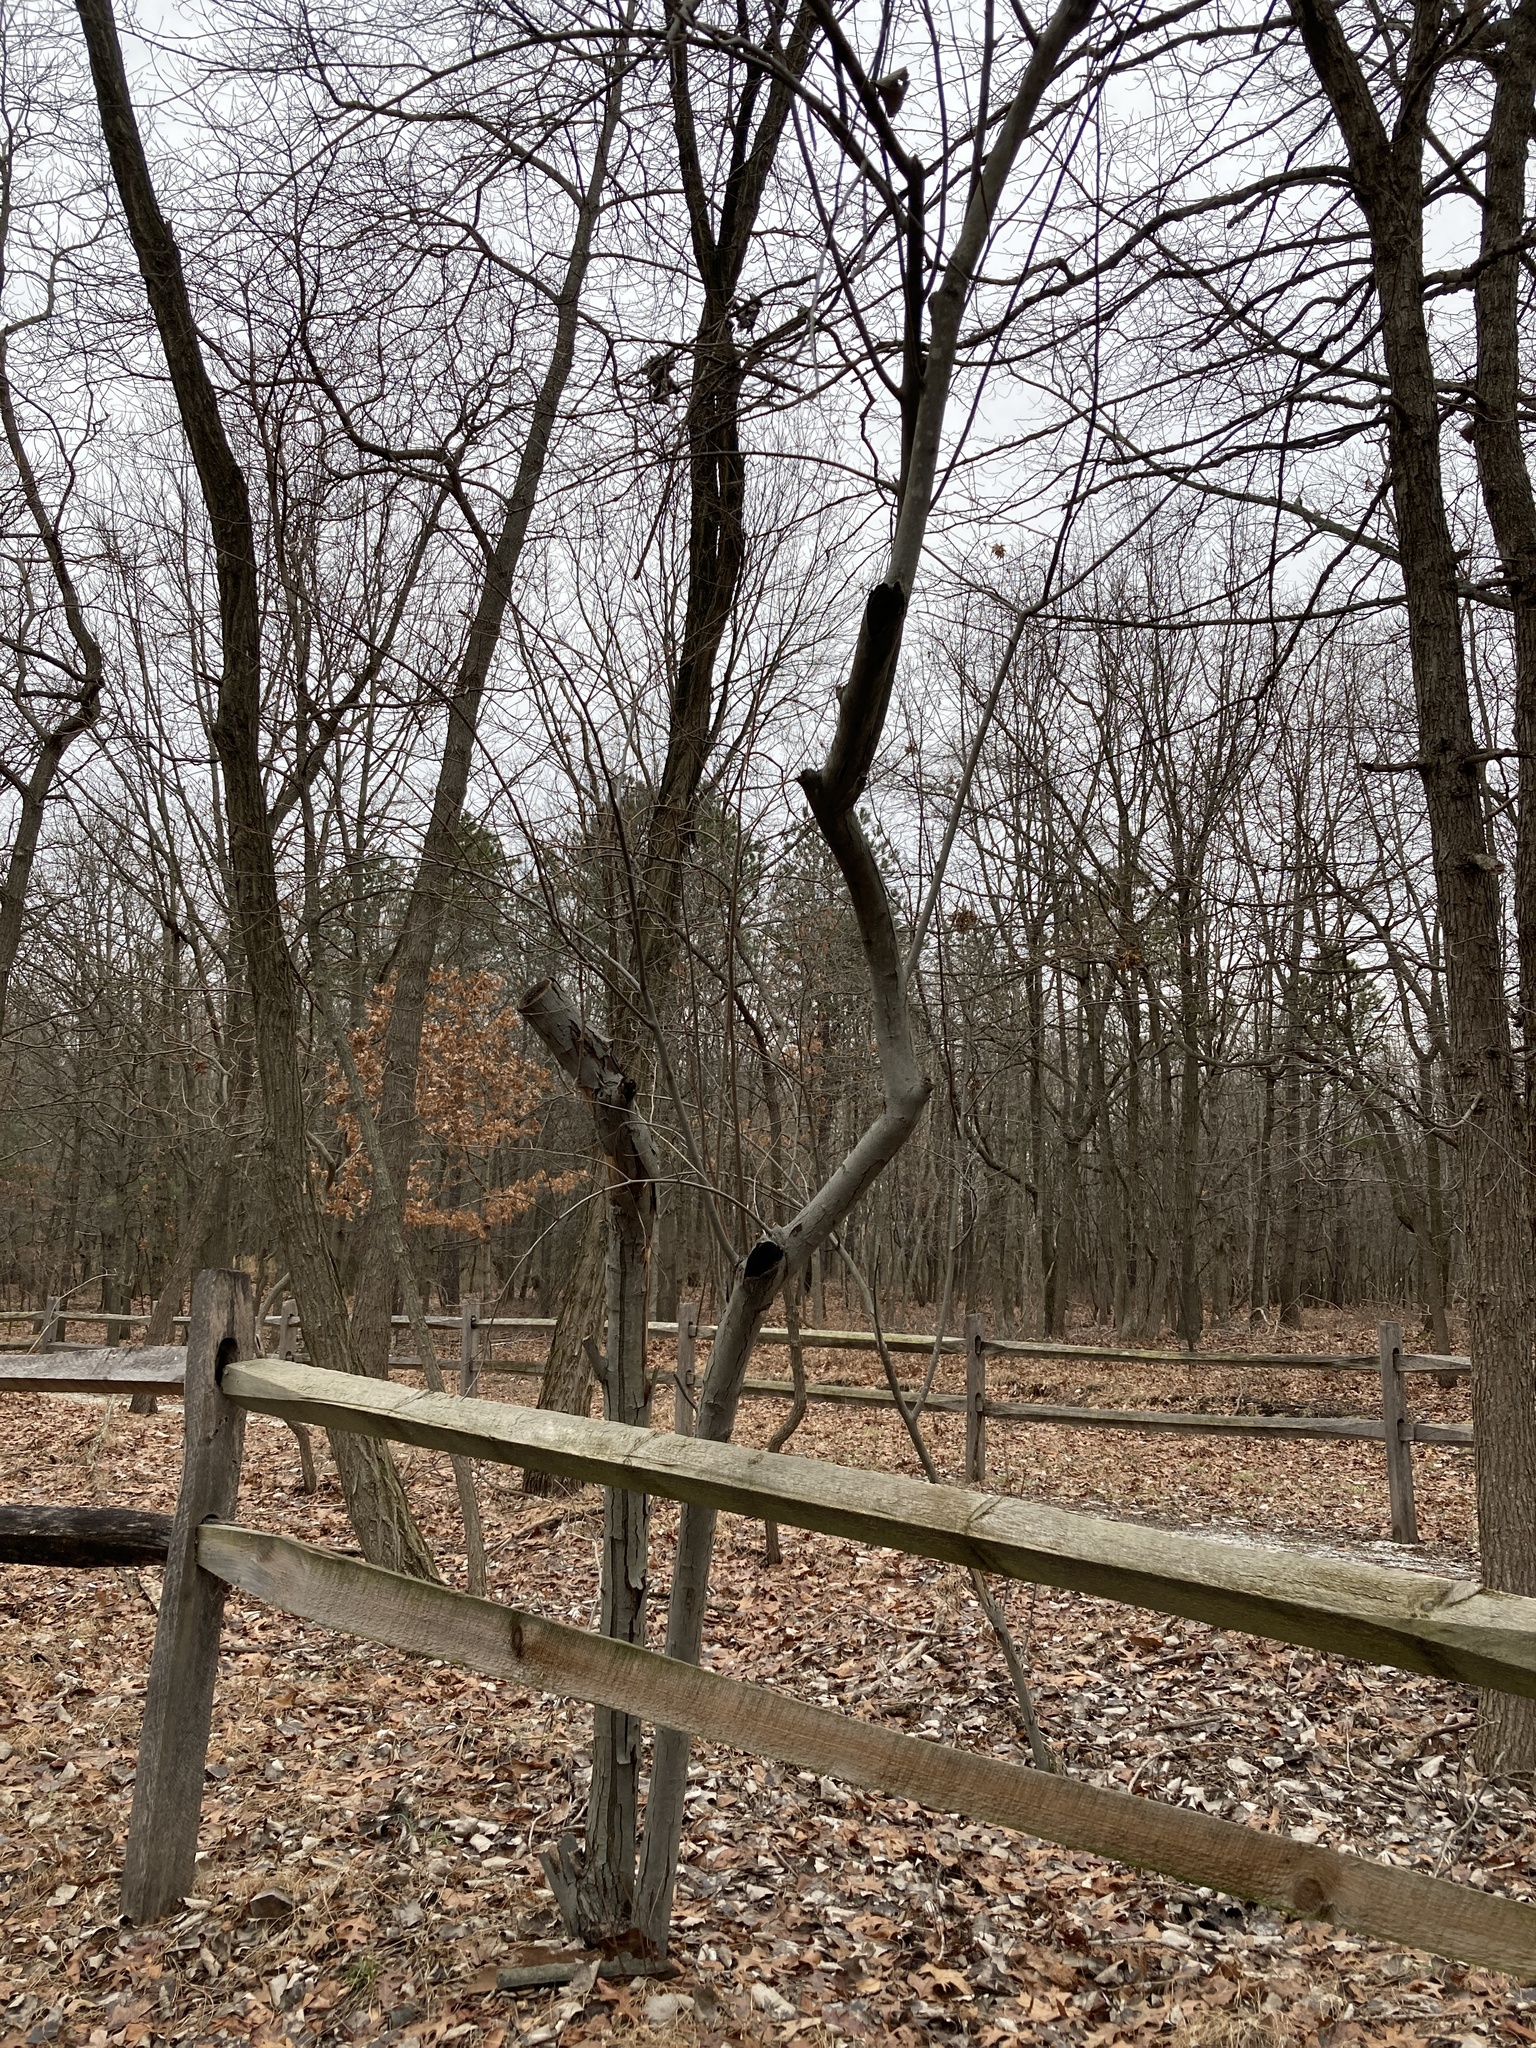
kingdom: Plantae
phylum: Tracheophyta
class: Magnoliopsida
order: Rosales
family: Elaeagnaceae
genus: Elaeagnus
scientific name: Elaeagnus umbellata
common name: Autumn olive
